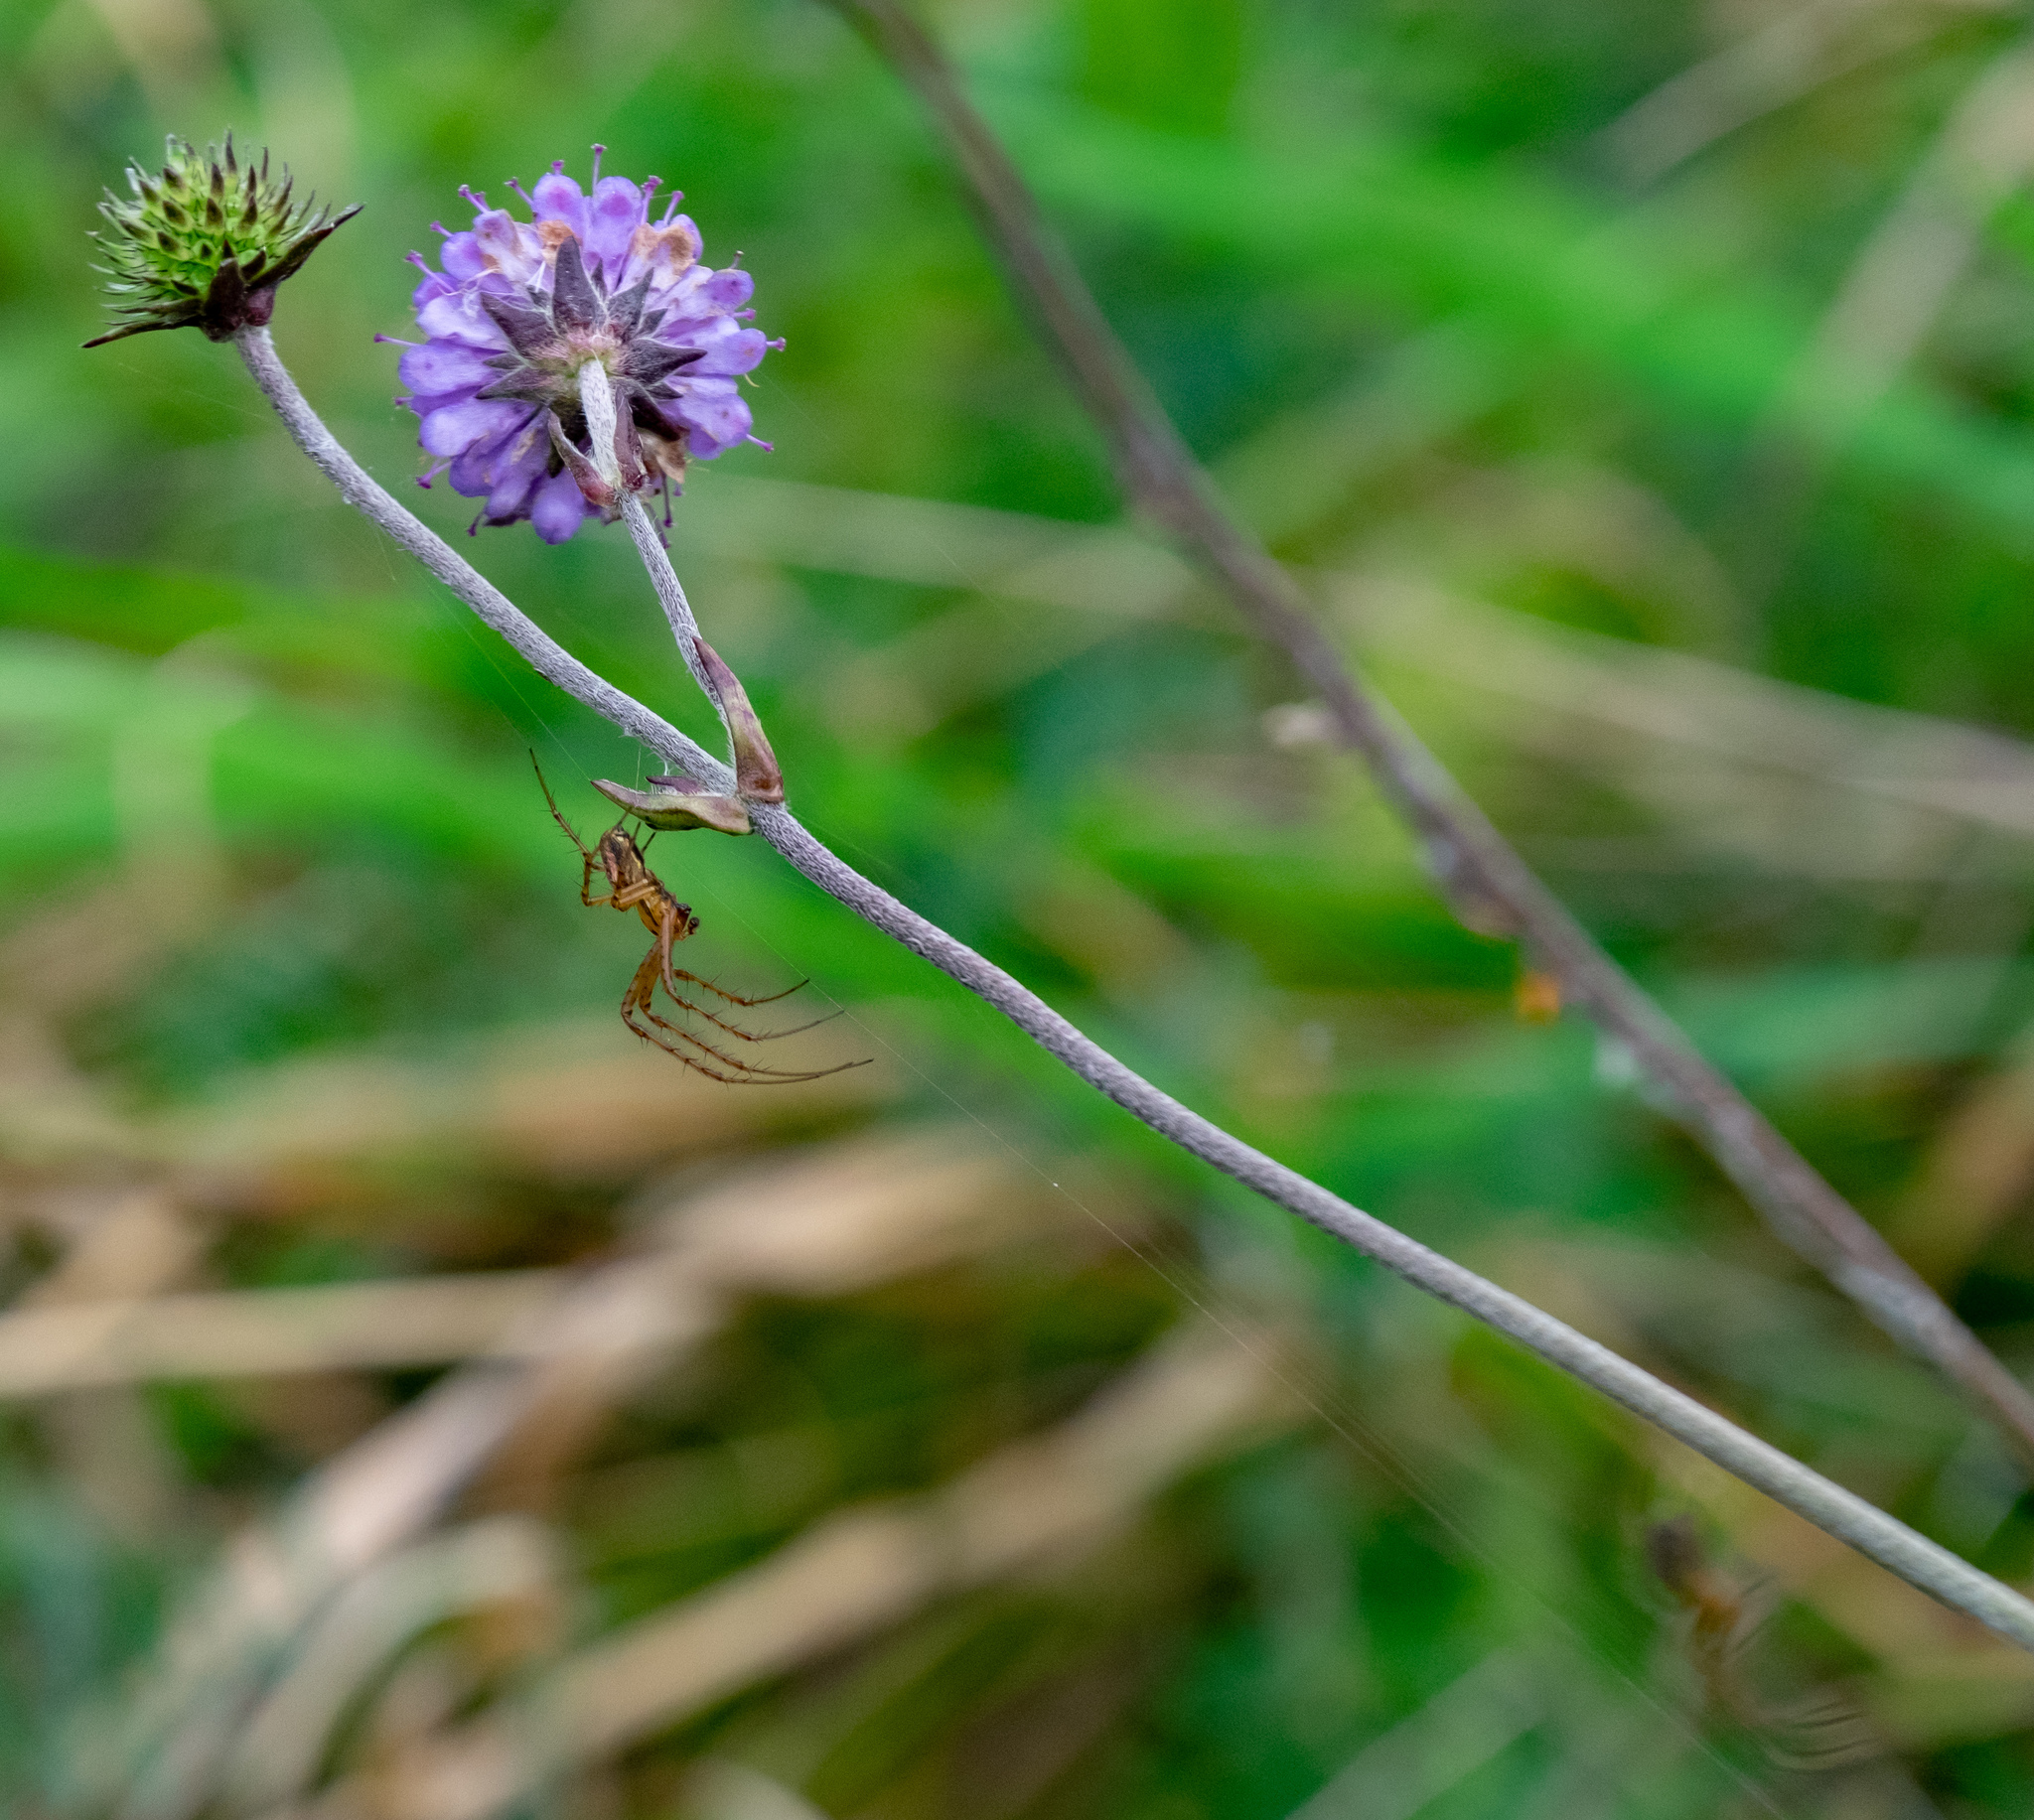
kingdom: Plantae
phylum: Tracheophyta
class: Magnoliopsida
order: Dipsacales
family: Caprifoliaceae
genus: Succisa
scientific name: Succisa pratensis
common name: Devil's-bit
